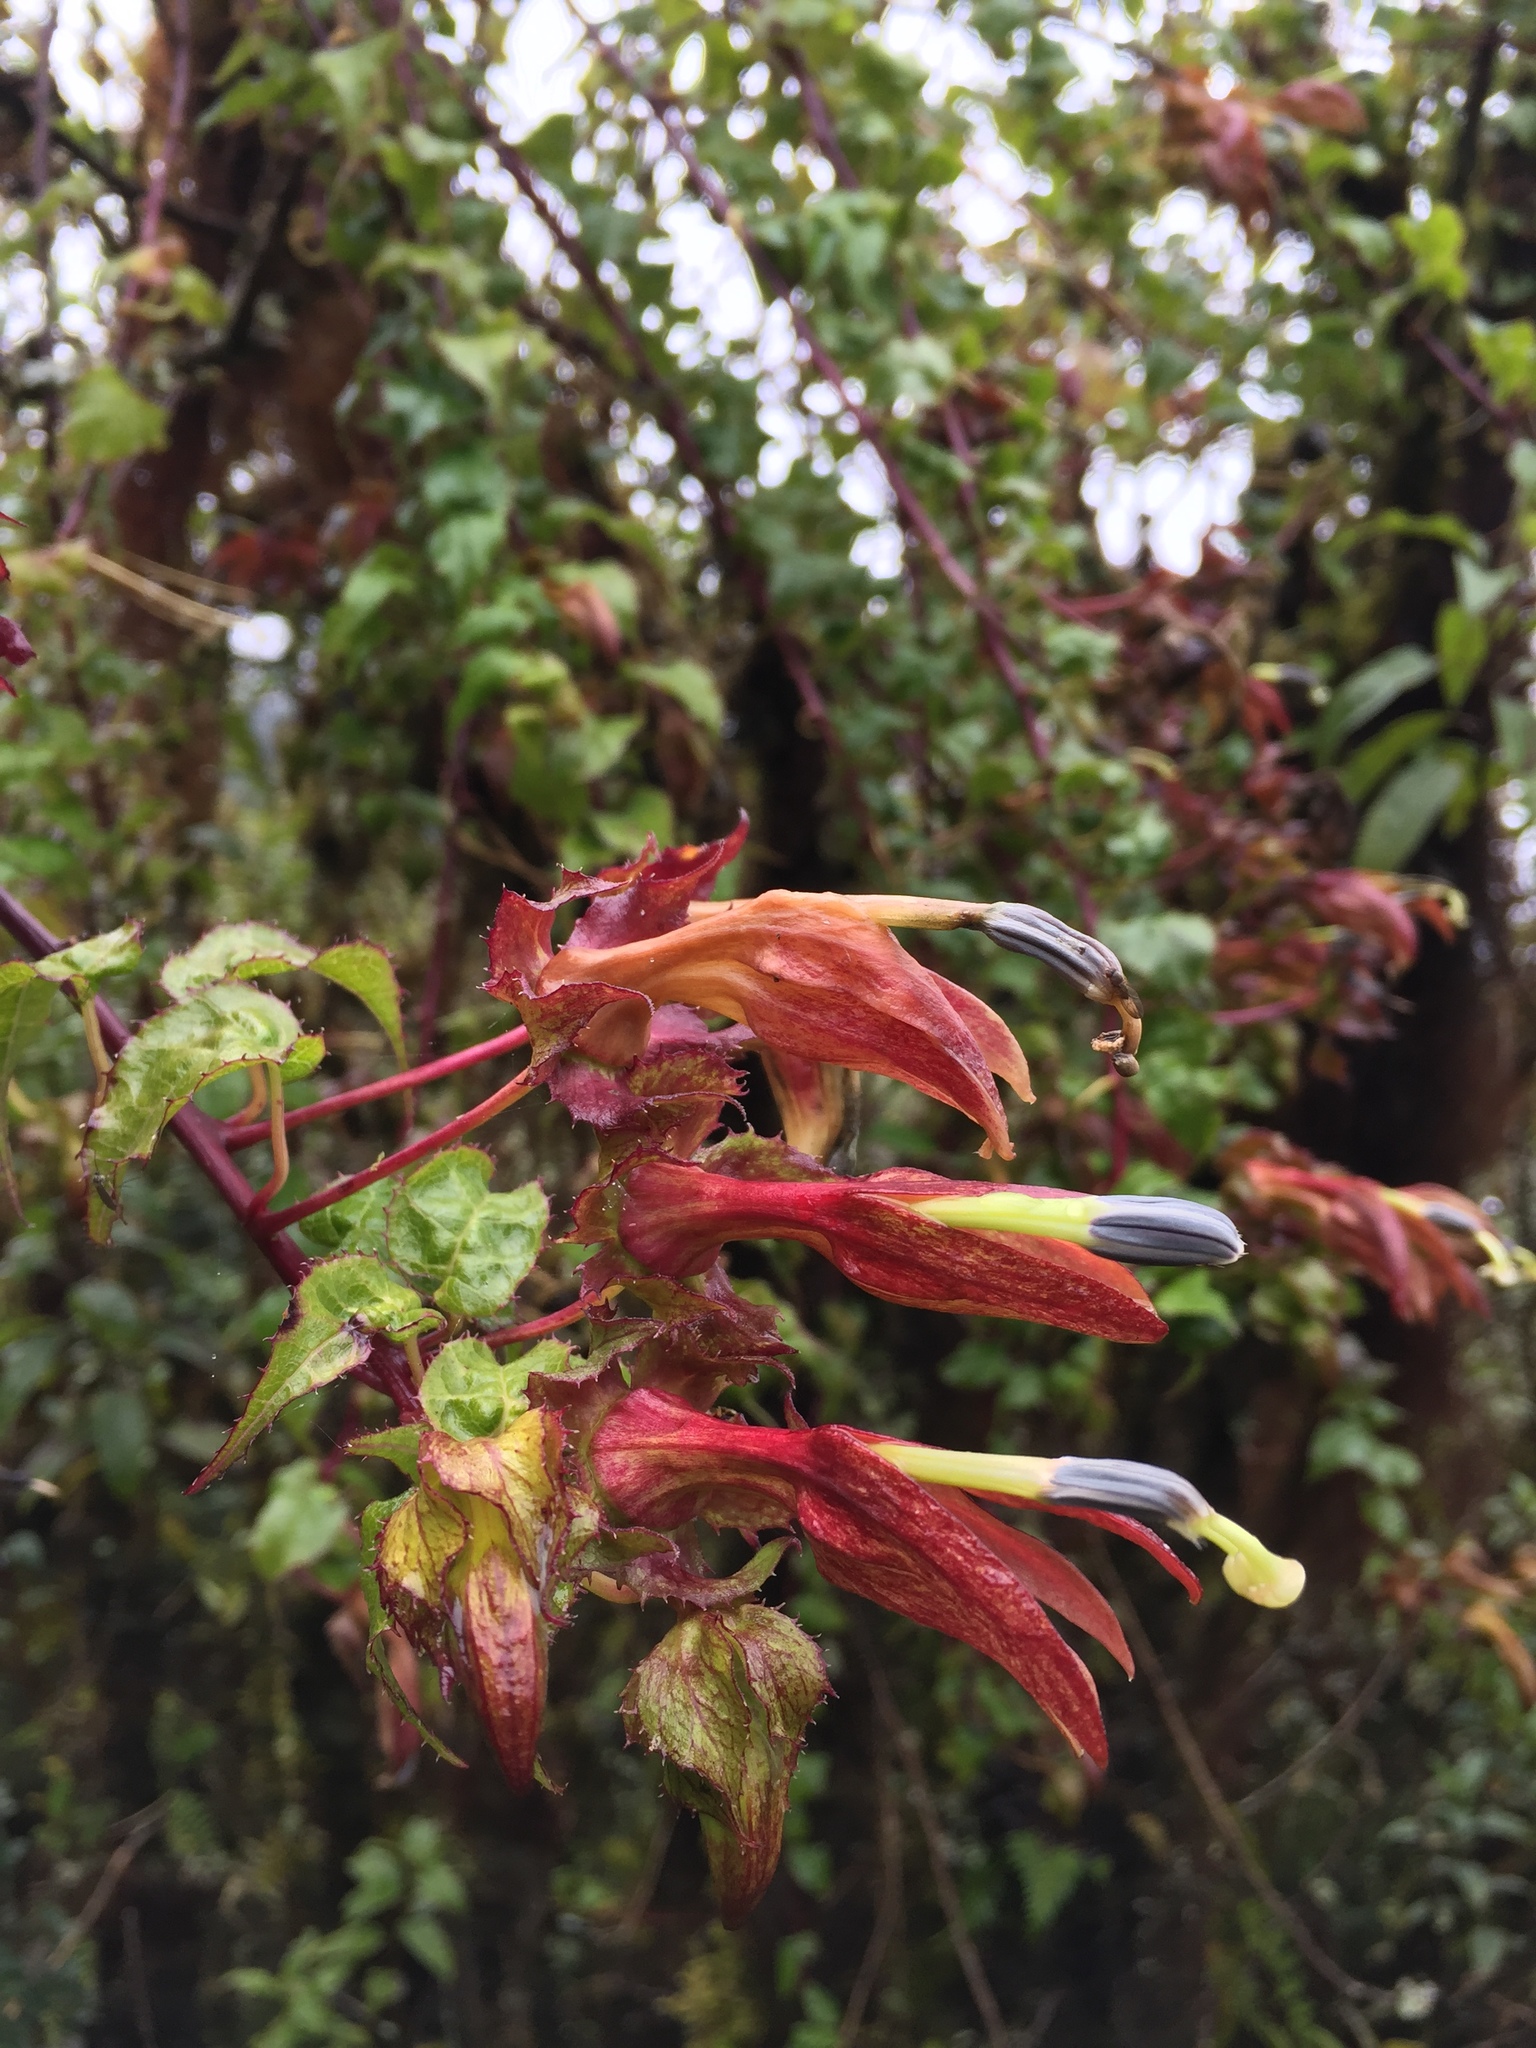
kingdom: Plantae
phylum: Tracheophyta
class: Magnoliopsida
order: Asterales
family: Campanulaceae
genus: Siphocampylus
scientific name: Siphocampylus ecuadoriensis
